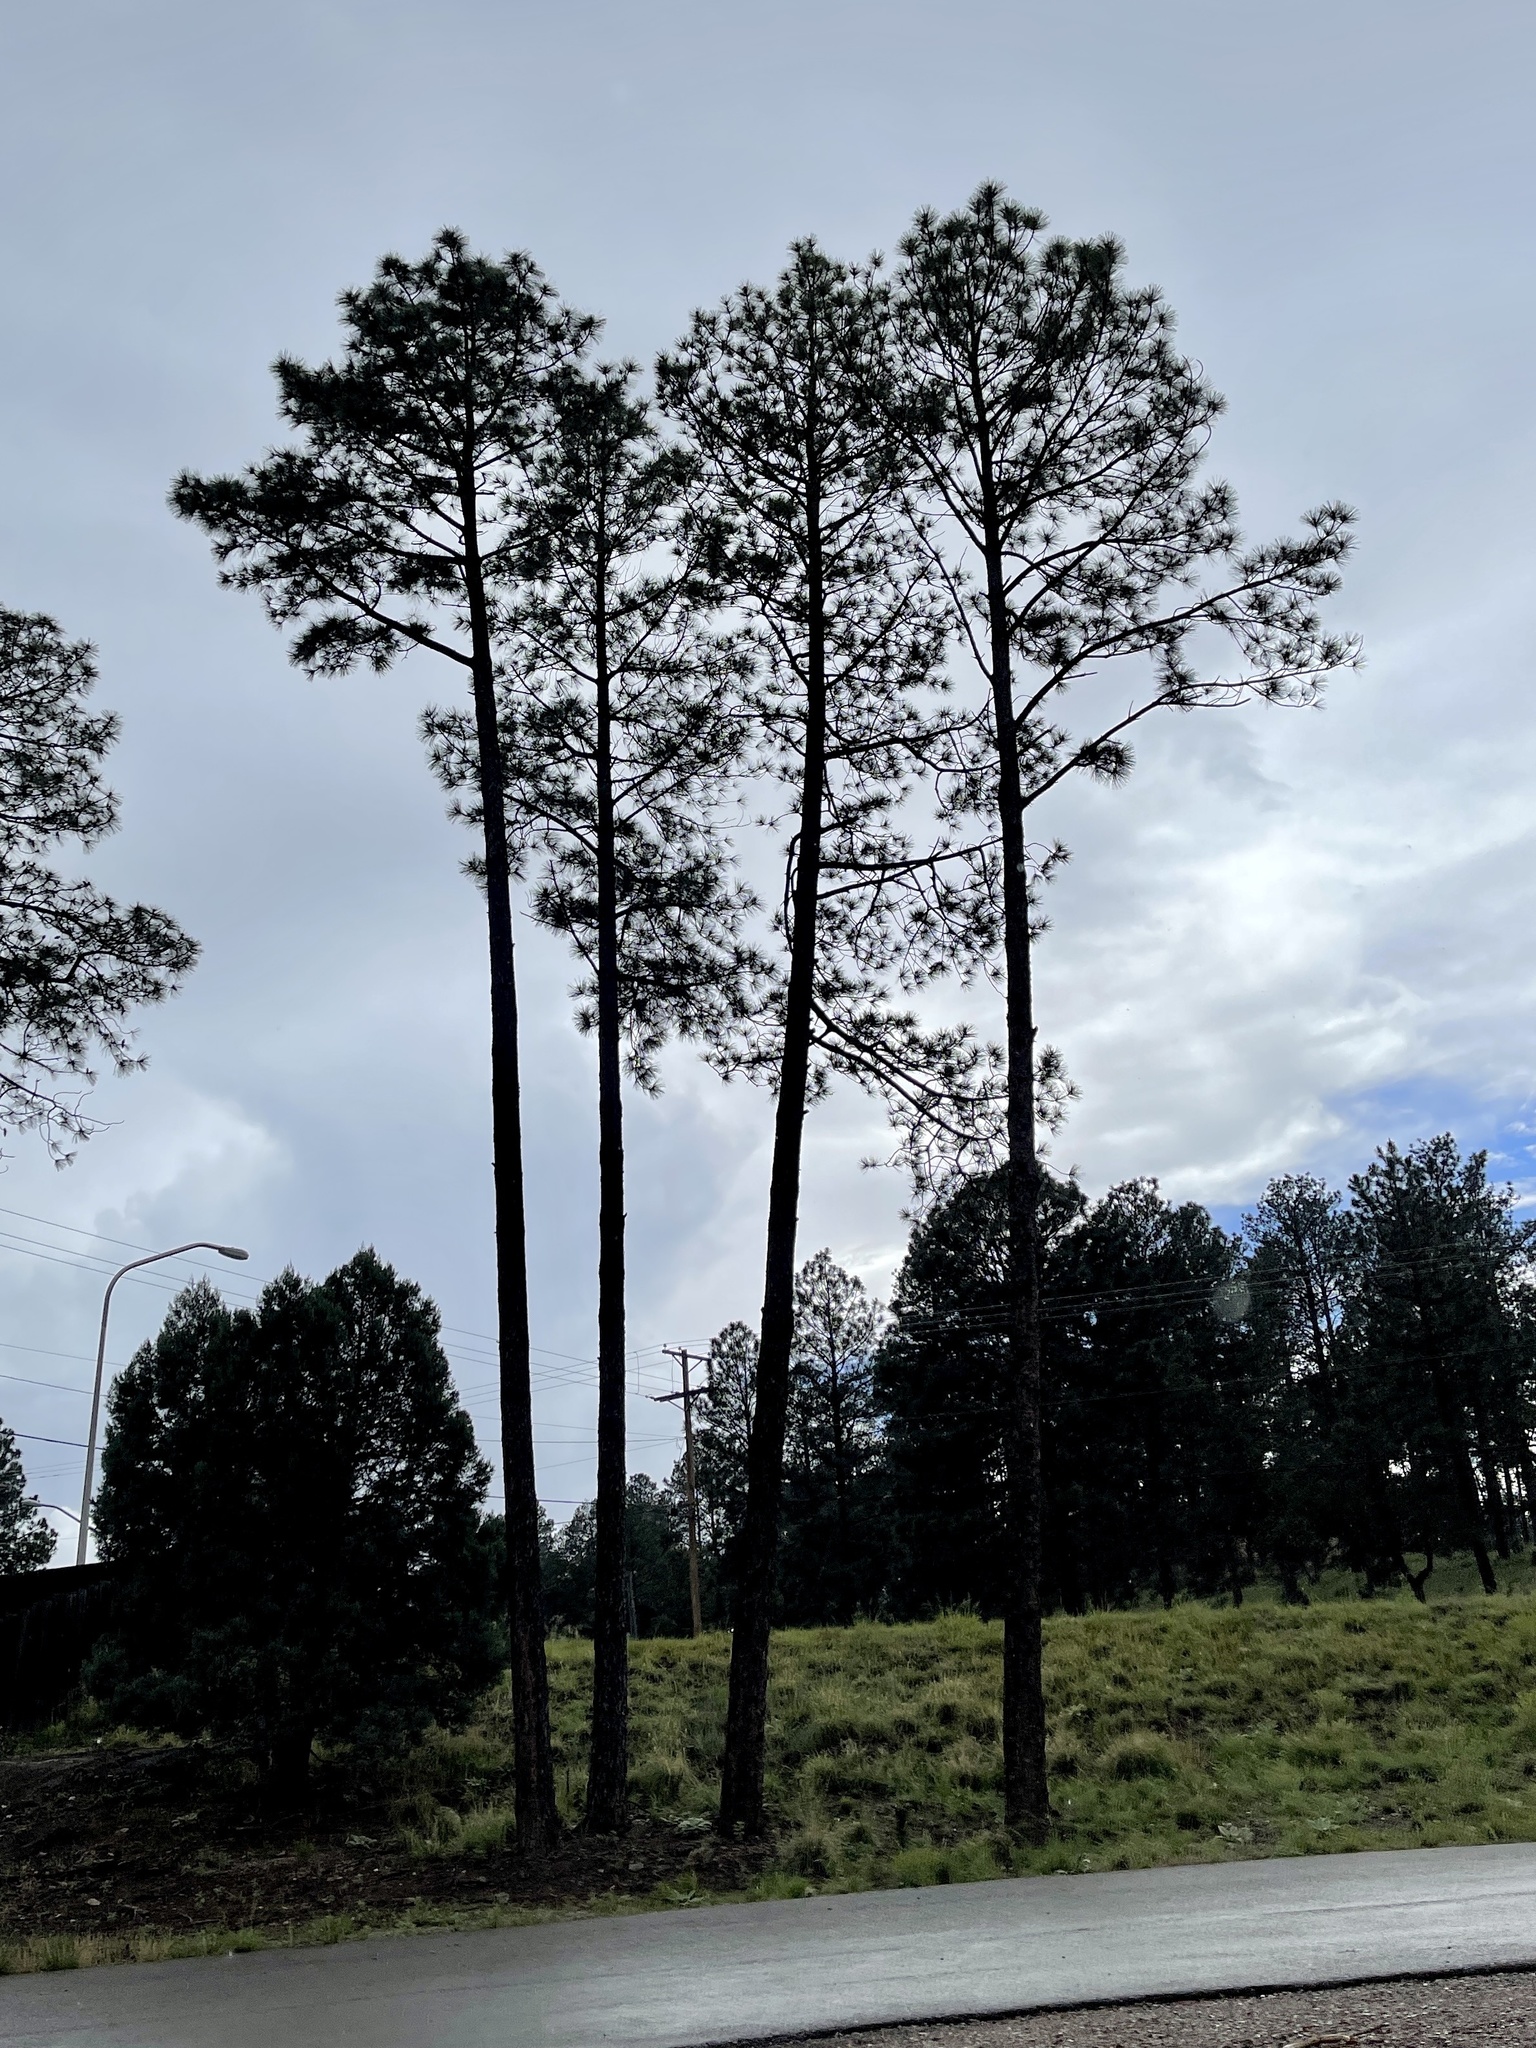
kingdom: Plantae
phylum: Tracheophyta
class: Pinopsida
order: Pinales
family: Pinaceae
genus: Pinus
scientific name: Pinus ponderosa
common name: Western yellow-pine
